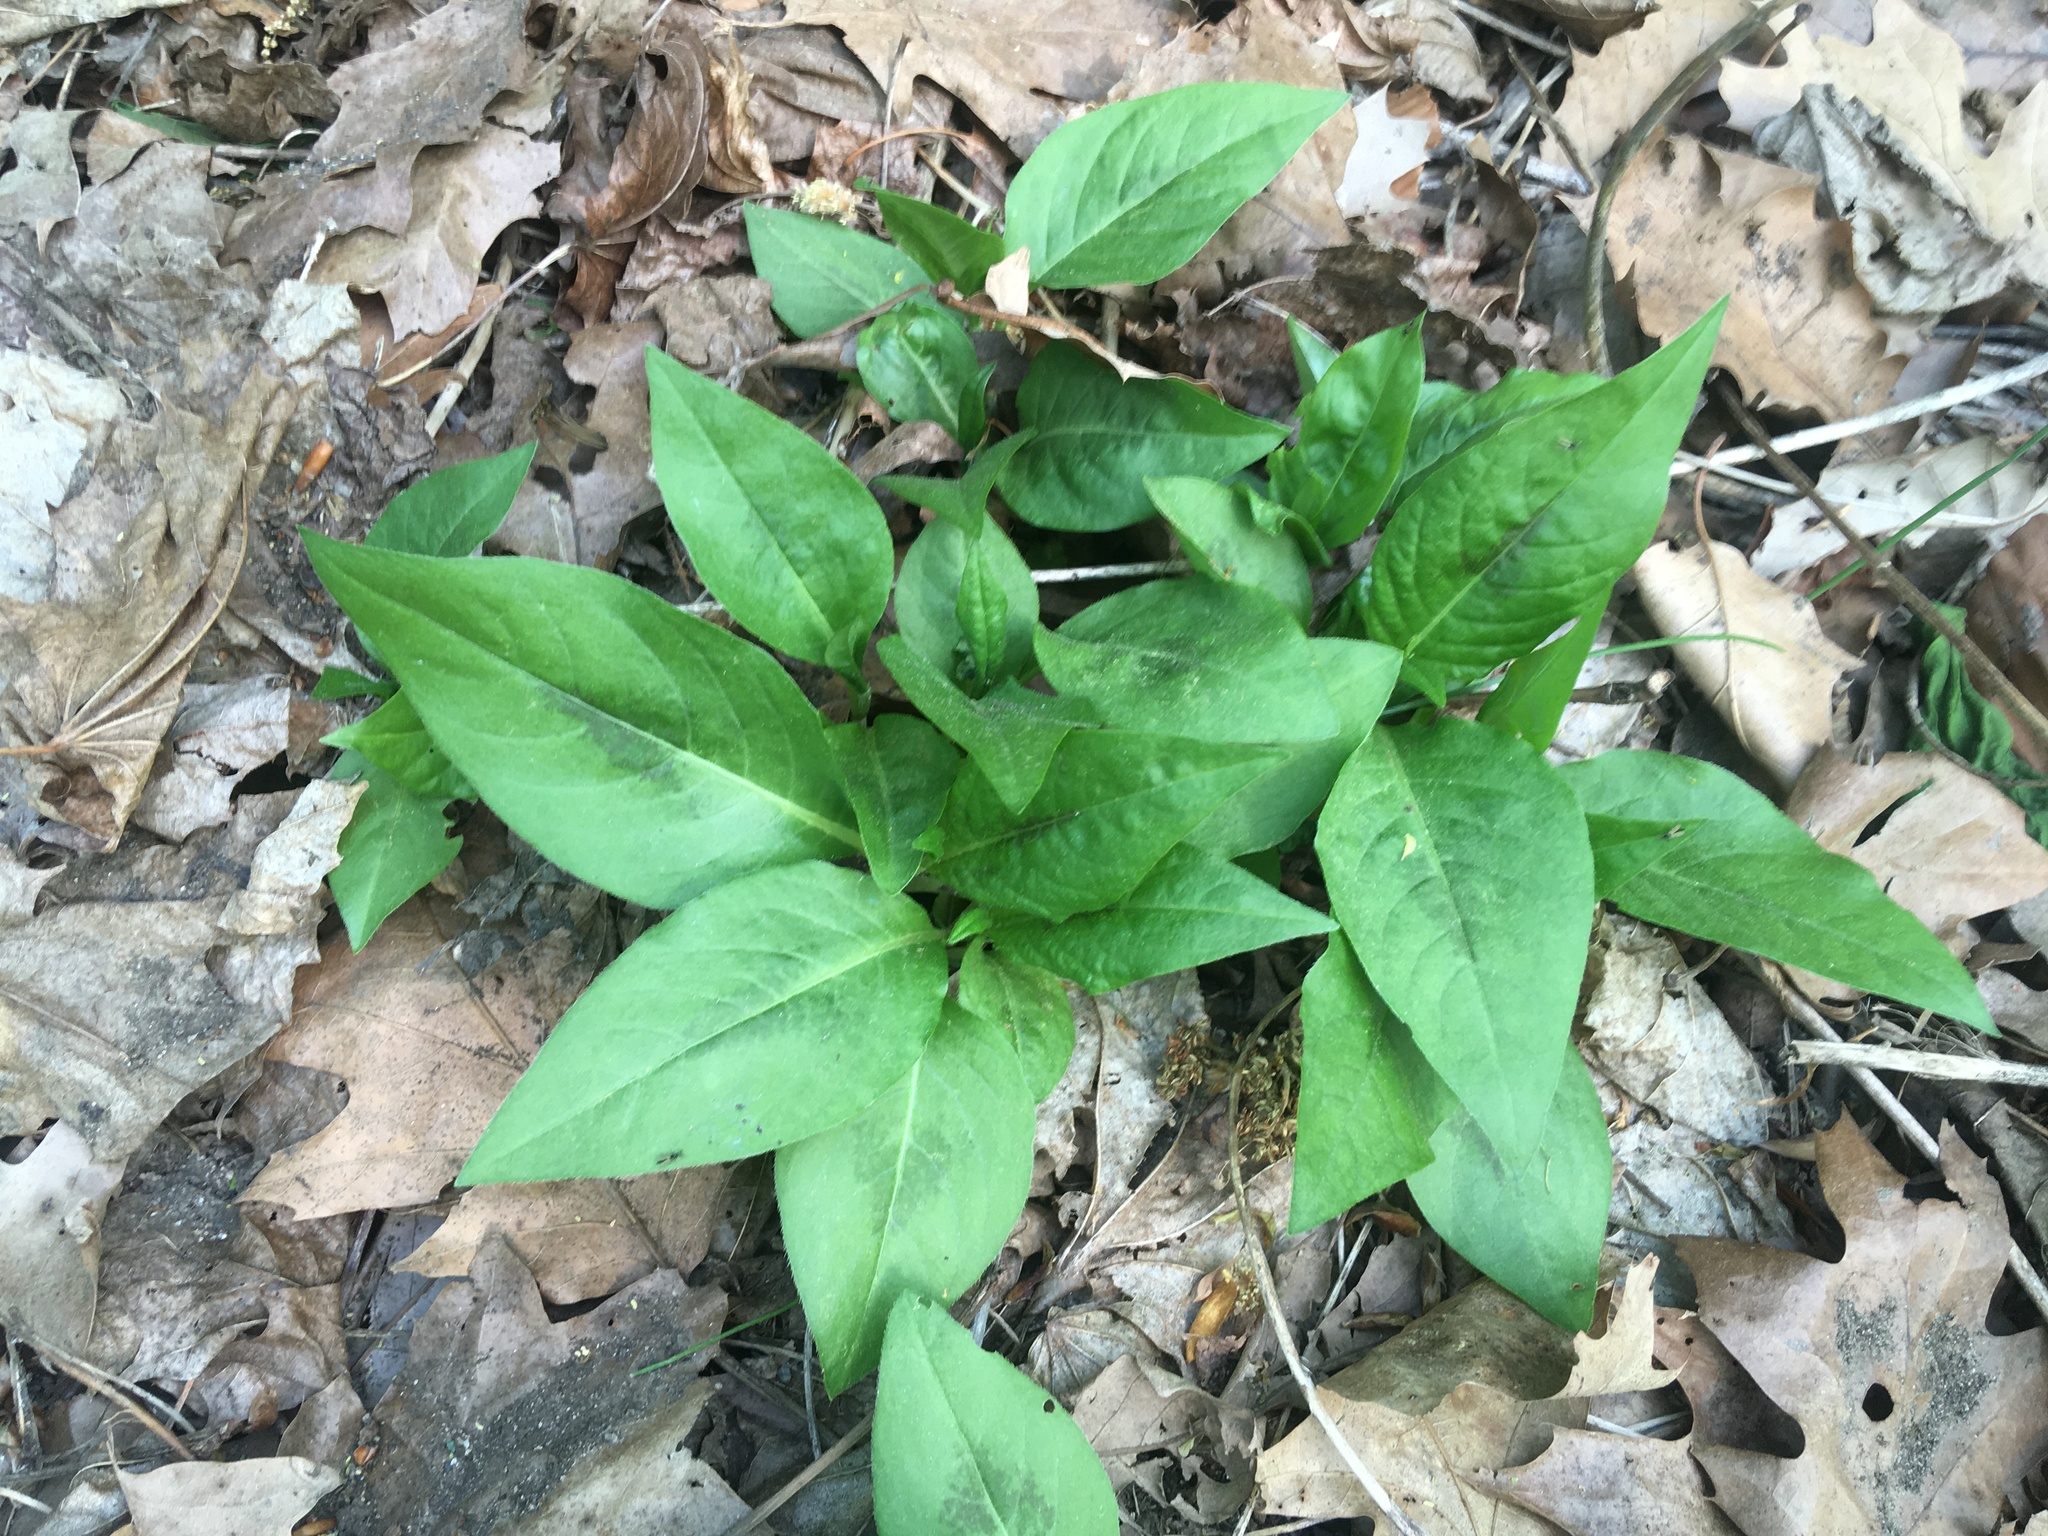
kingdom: Plantae
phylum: Tracheophyta
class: Magnoliopsida
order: Caryophyllales
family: Polygonaceae
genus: Persicaria
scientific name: Persicaria virginiana
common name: Jumpseed
